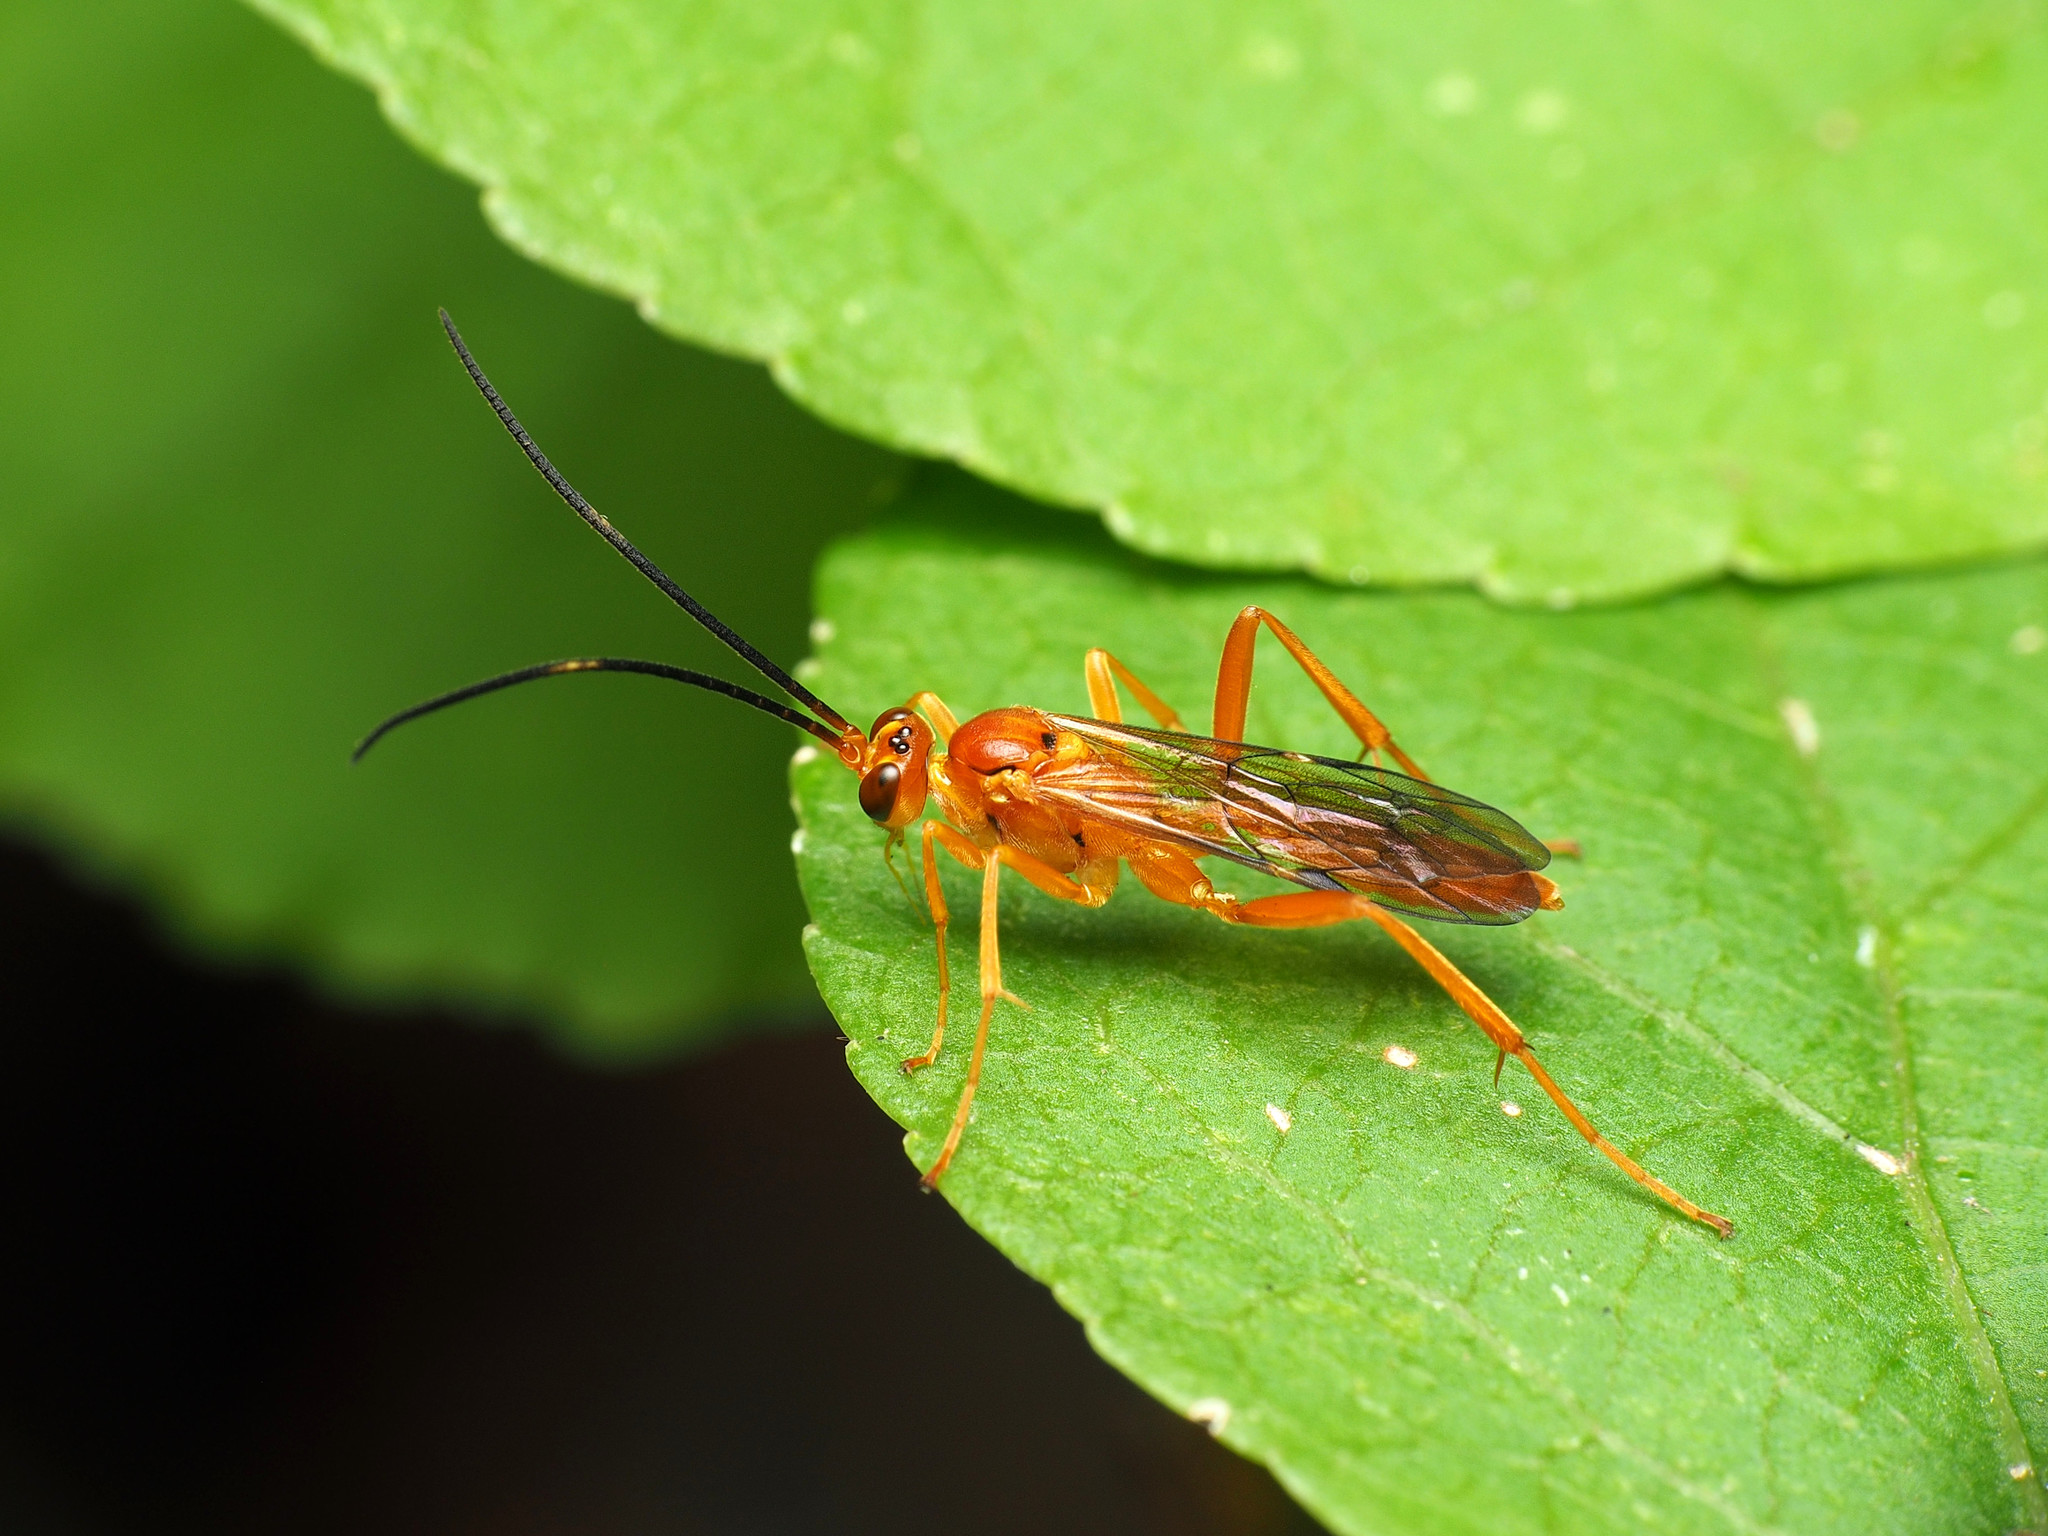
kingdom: Animalia
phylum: Arthropoda
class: Insecta
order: Hymenoptera
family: Ichneumonidae
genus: Polytribax
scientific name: Polytribax pallescens
